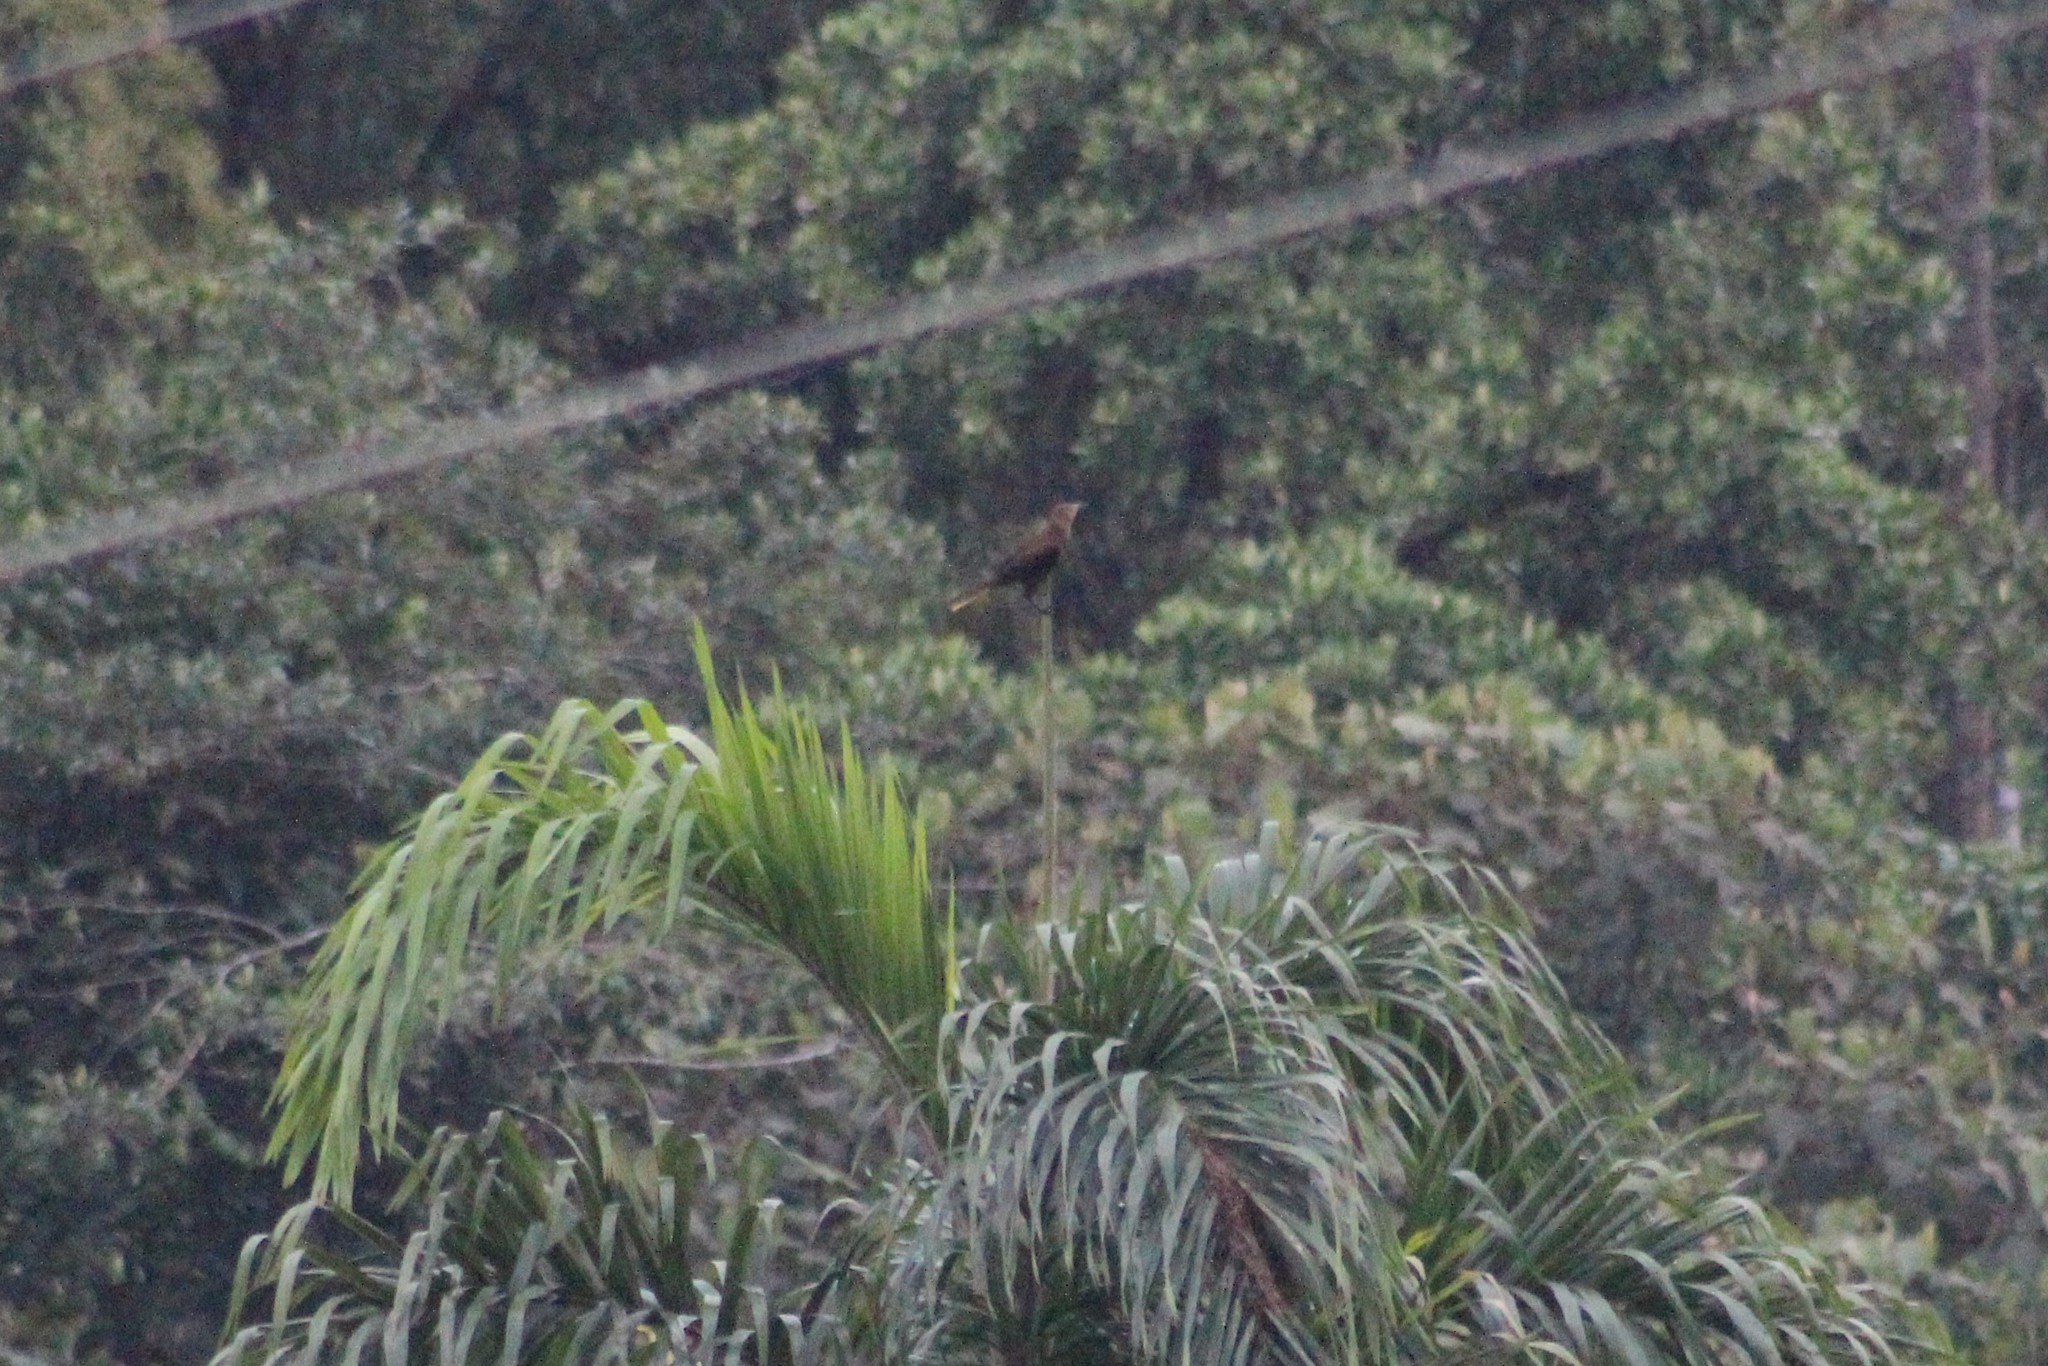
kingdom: Animalia
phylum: Chordata
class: Aves
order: Passeriformes
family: Icteridae
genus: Psarocolius
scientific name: Psarocolius angustifrons
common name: Russet-backed oropendola
